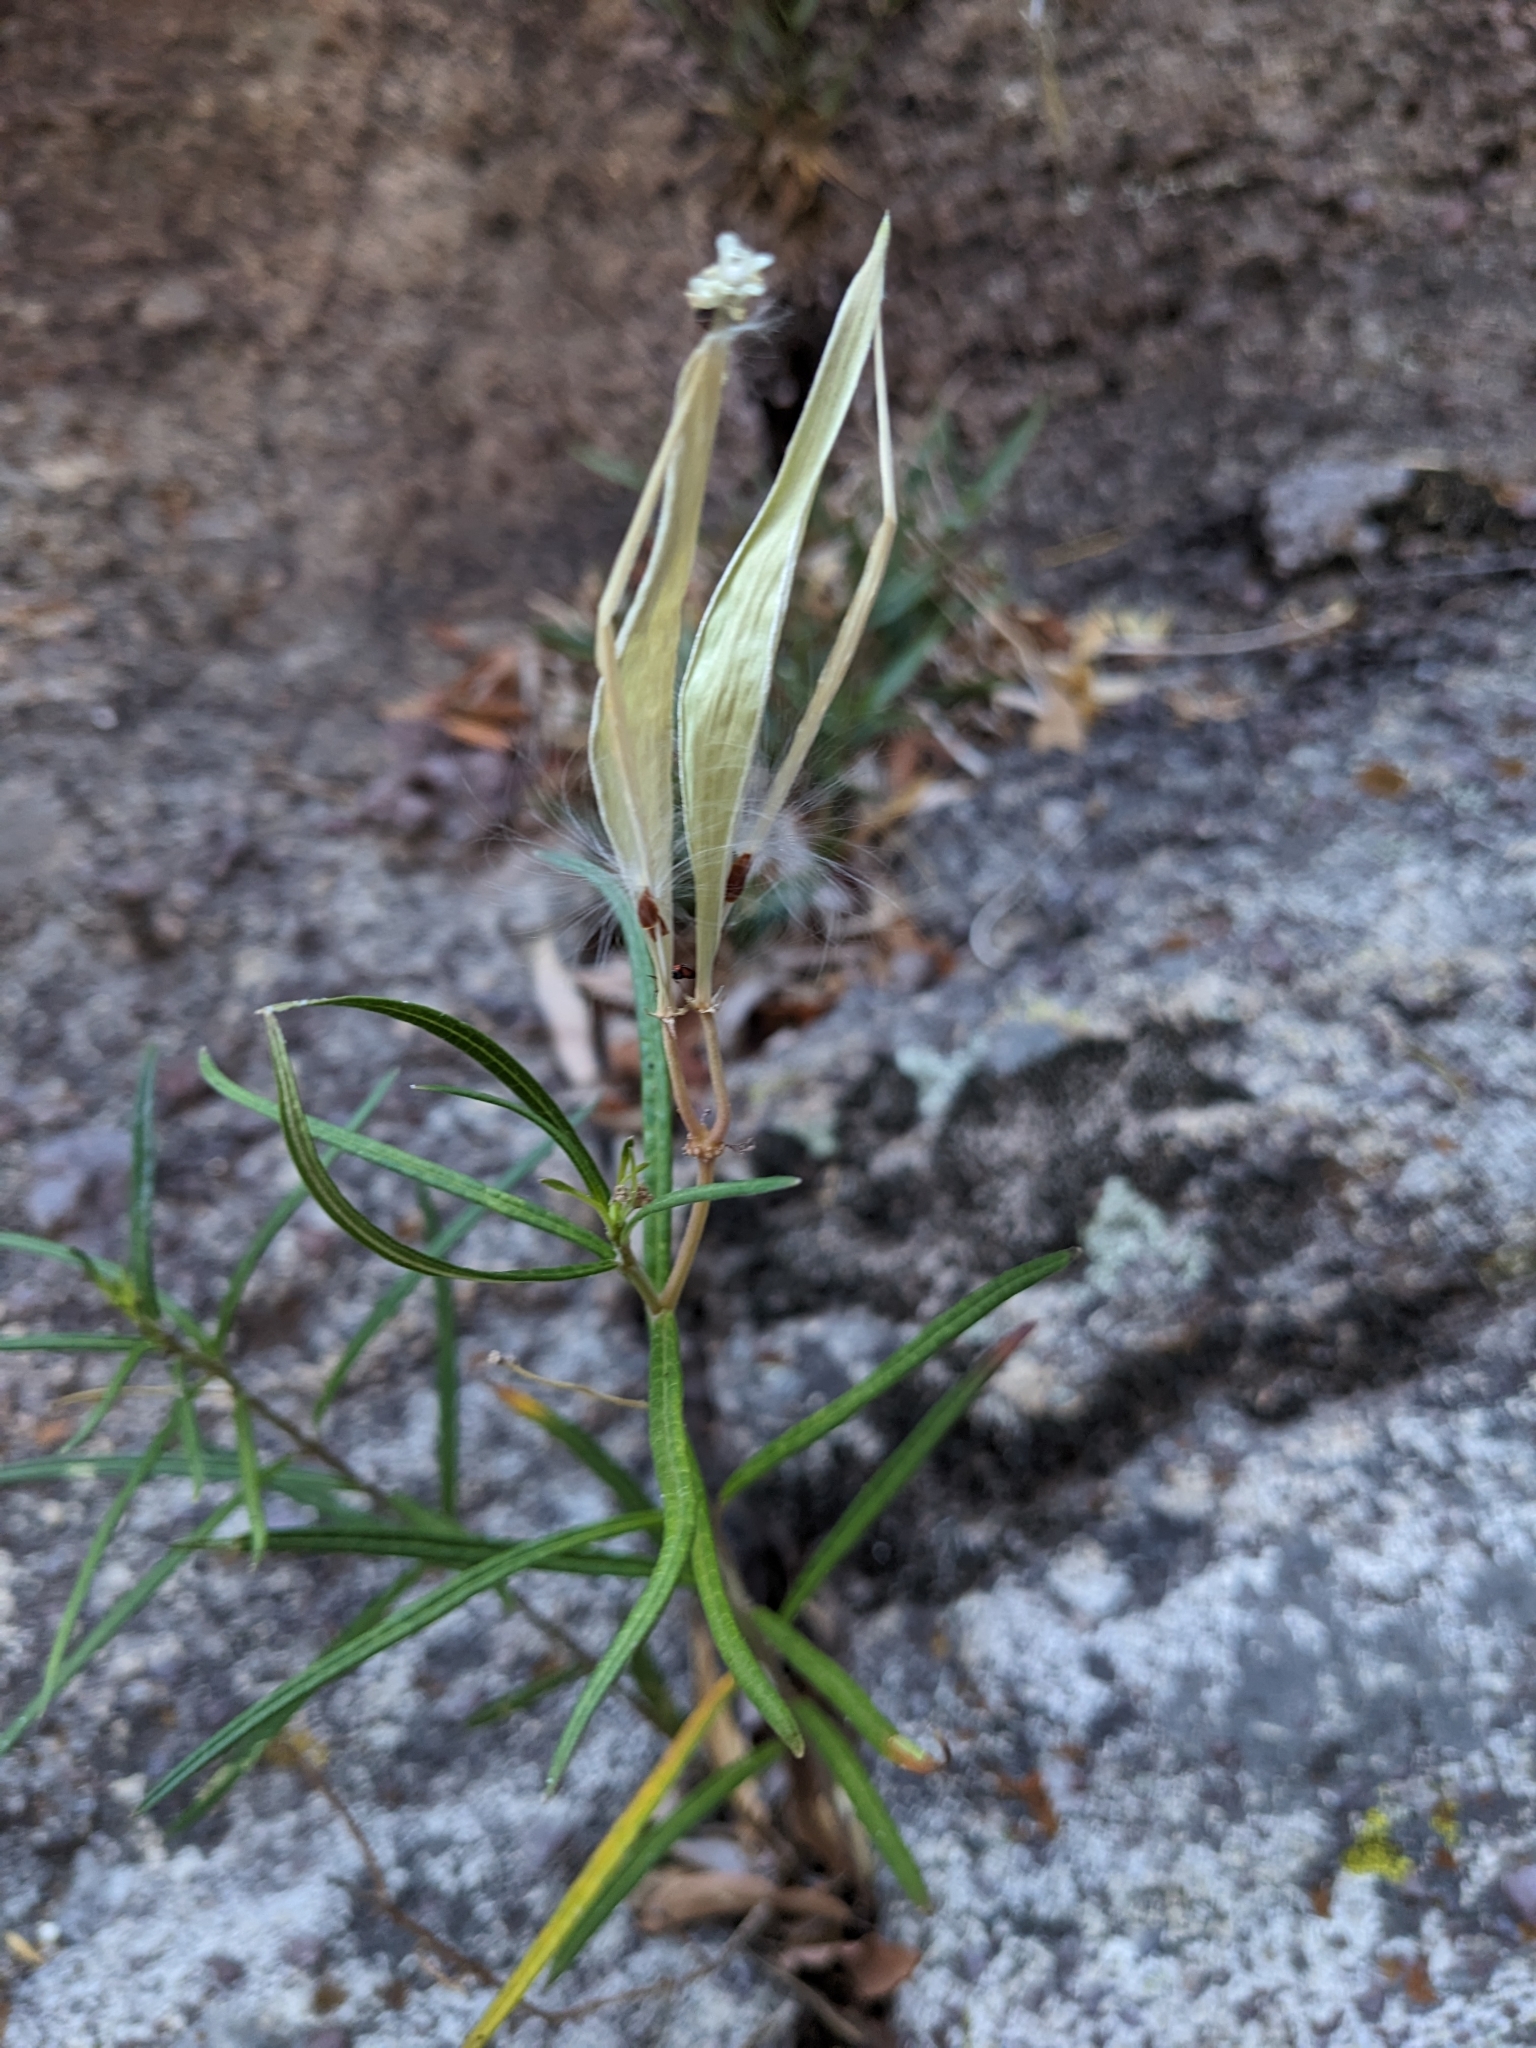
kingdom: Plantae
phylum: Tracheophyta
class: Magnoliopsida
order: Gentianales
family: Apocynaceae
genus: Asclepias
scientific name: Asclepias angustifolia
